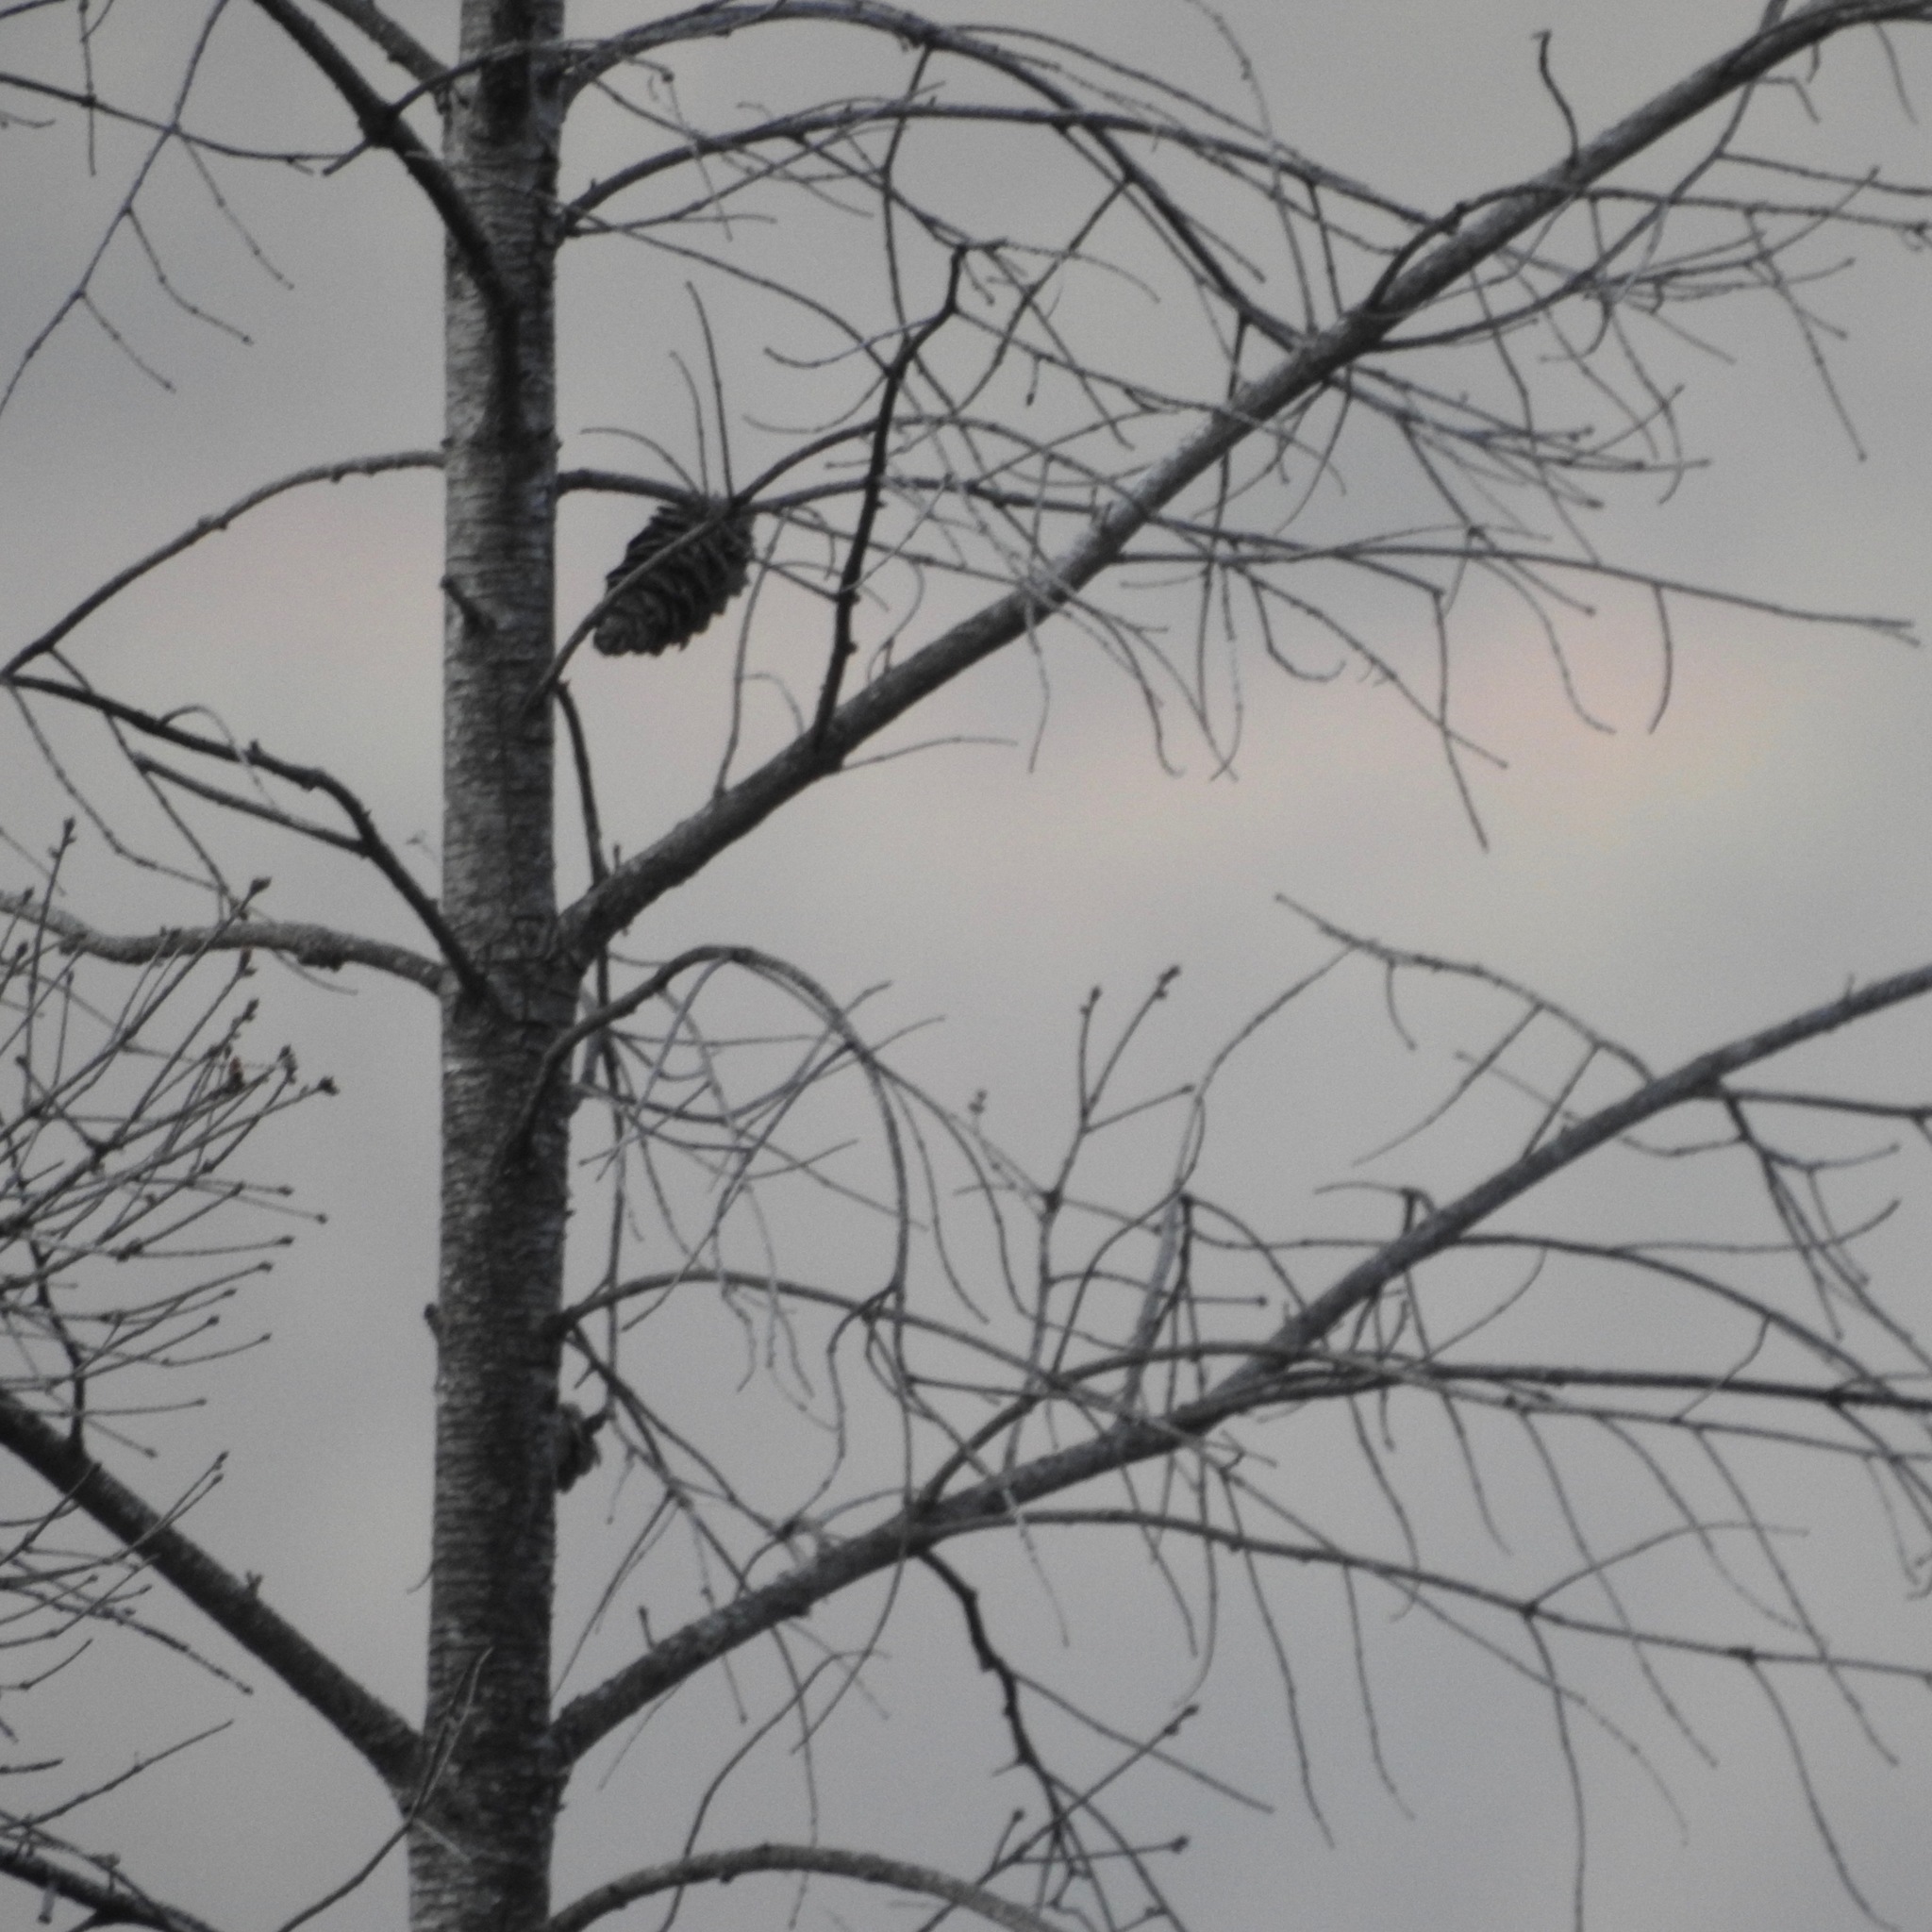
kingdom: Plantae
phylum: Tracheophyta
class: Pinopsida
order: Pinales
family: Pinaceae
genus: Pseudotsuga
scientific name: Pseudotsuga menziesii
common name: Douglas fir
